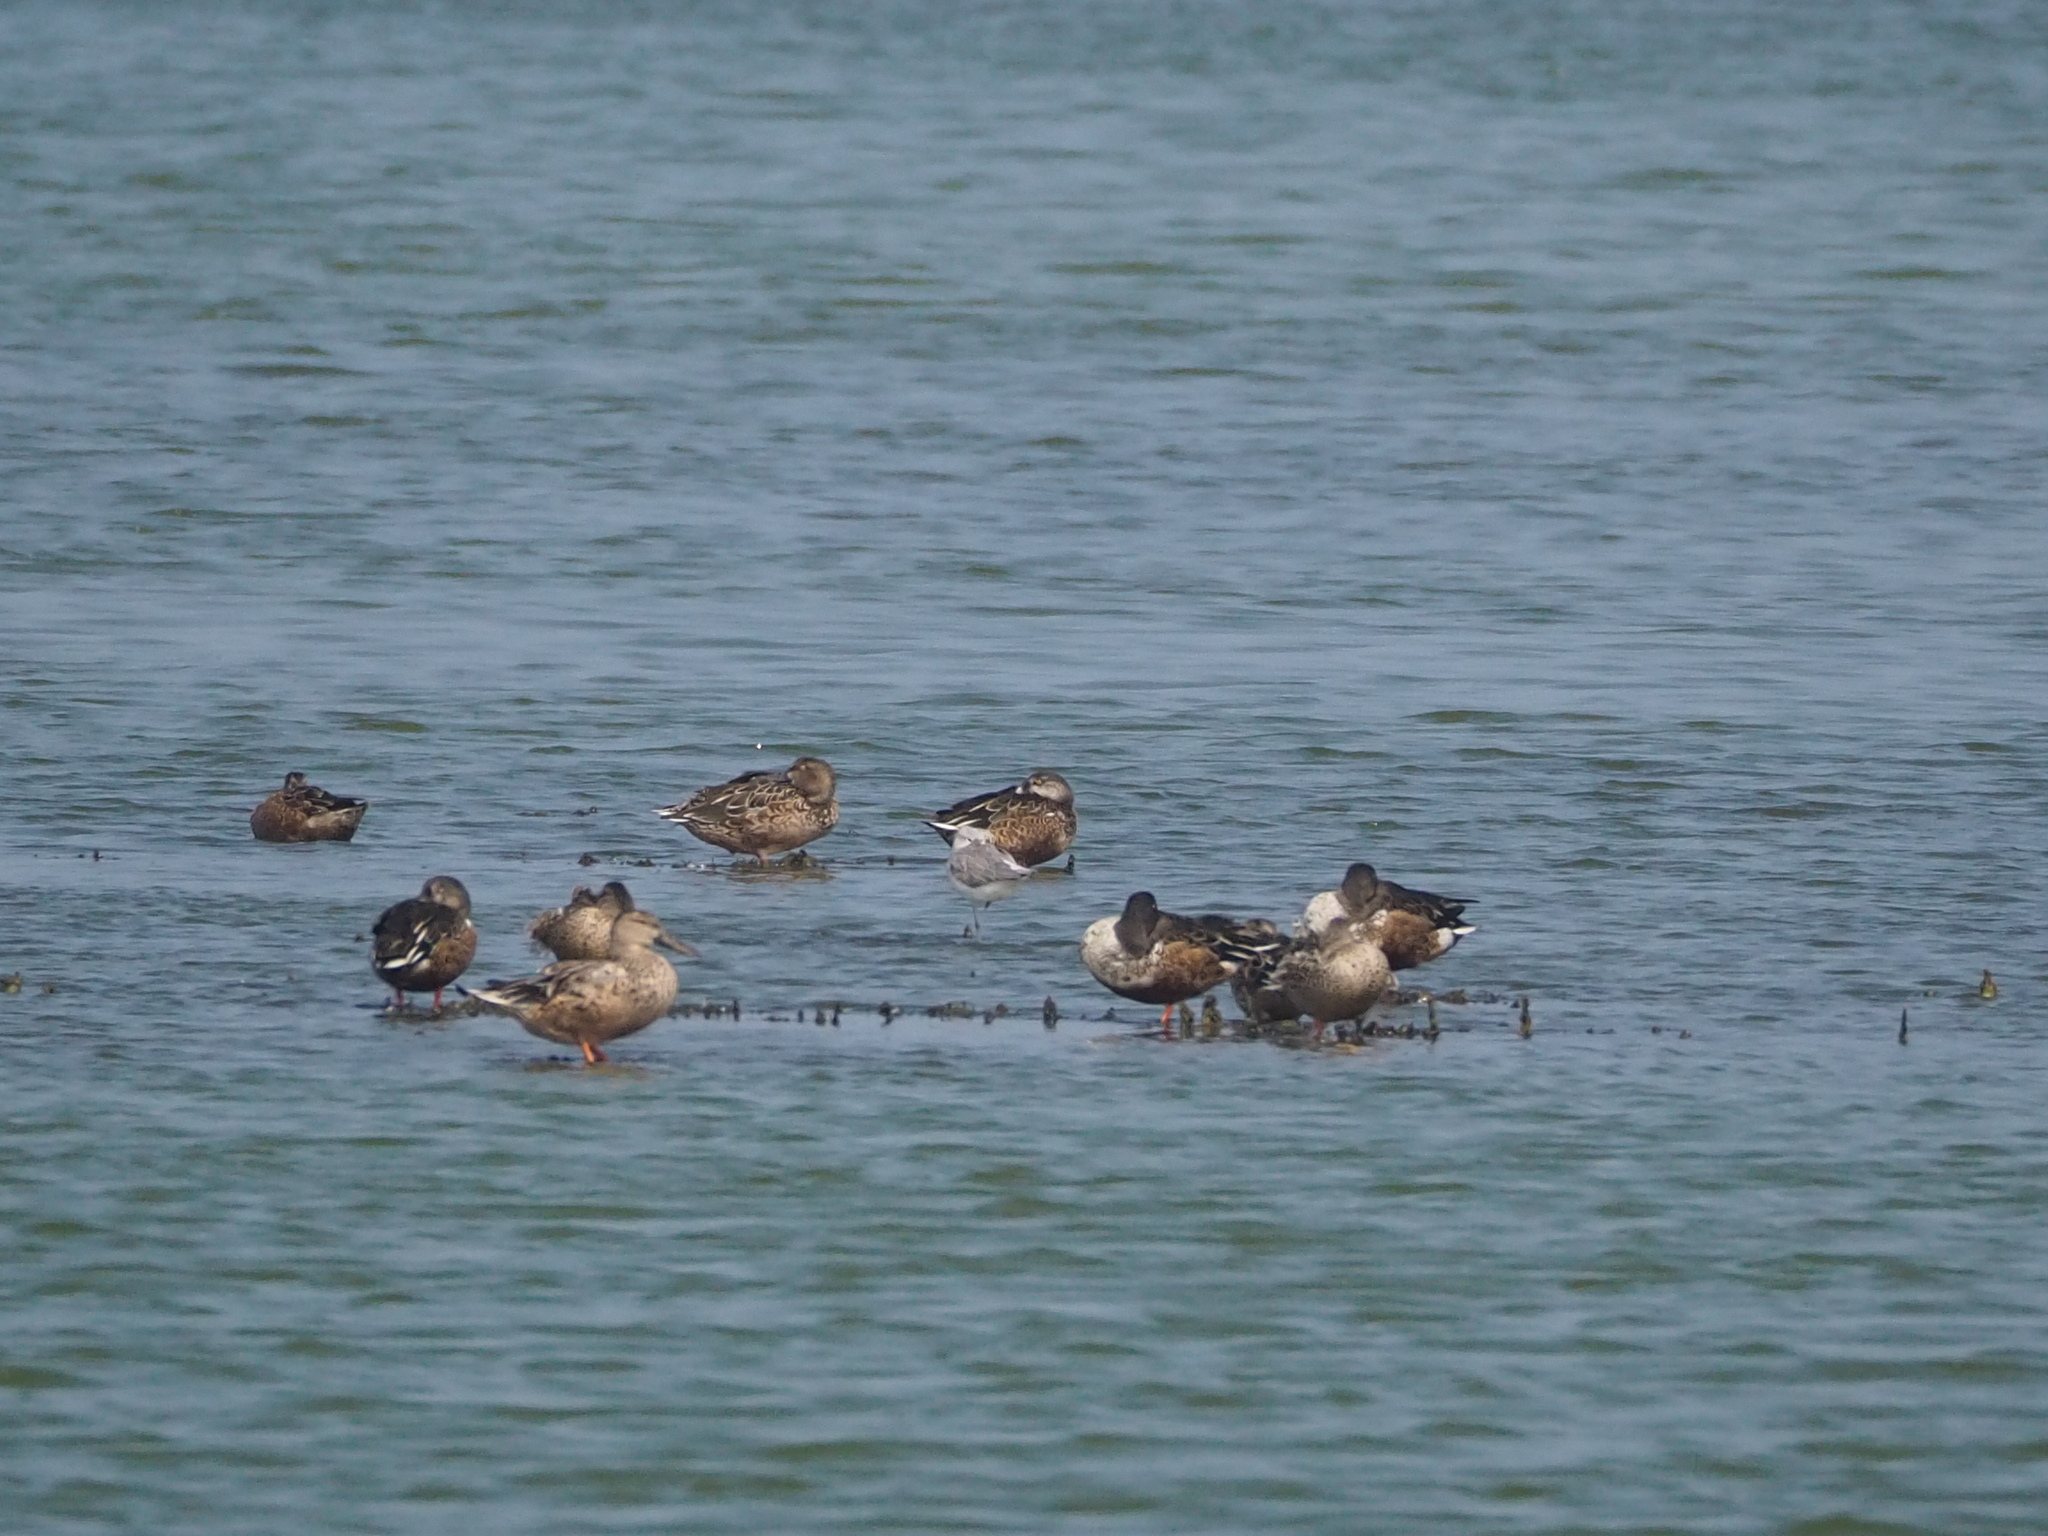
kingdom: Animalia
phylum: Chordata
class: Aves
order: Anseriformes
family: Anatidae
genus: Spatula
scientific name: Spatula clypeata
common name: Northern shoveler
